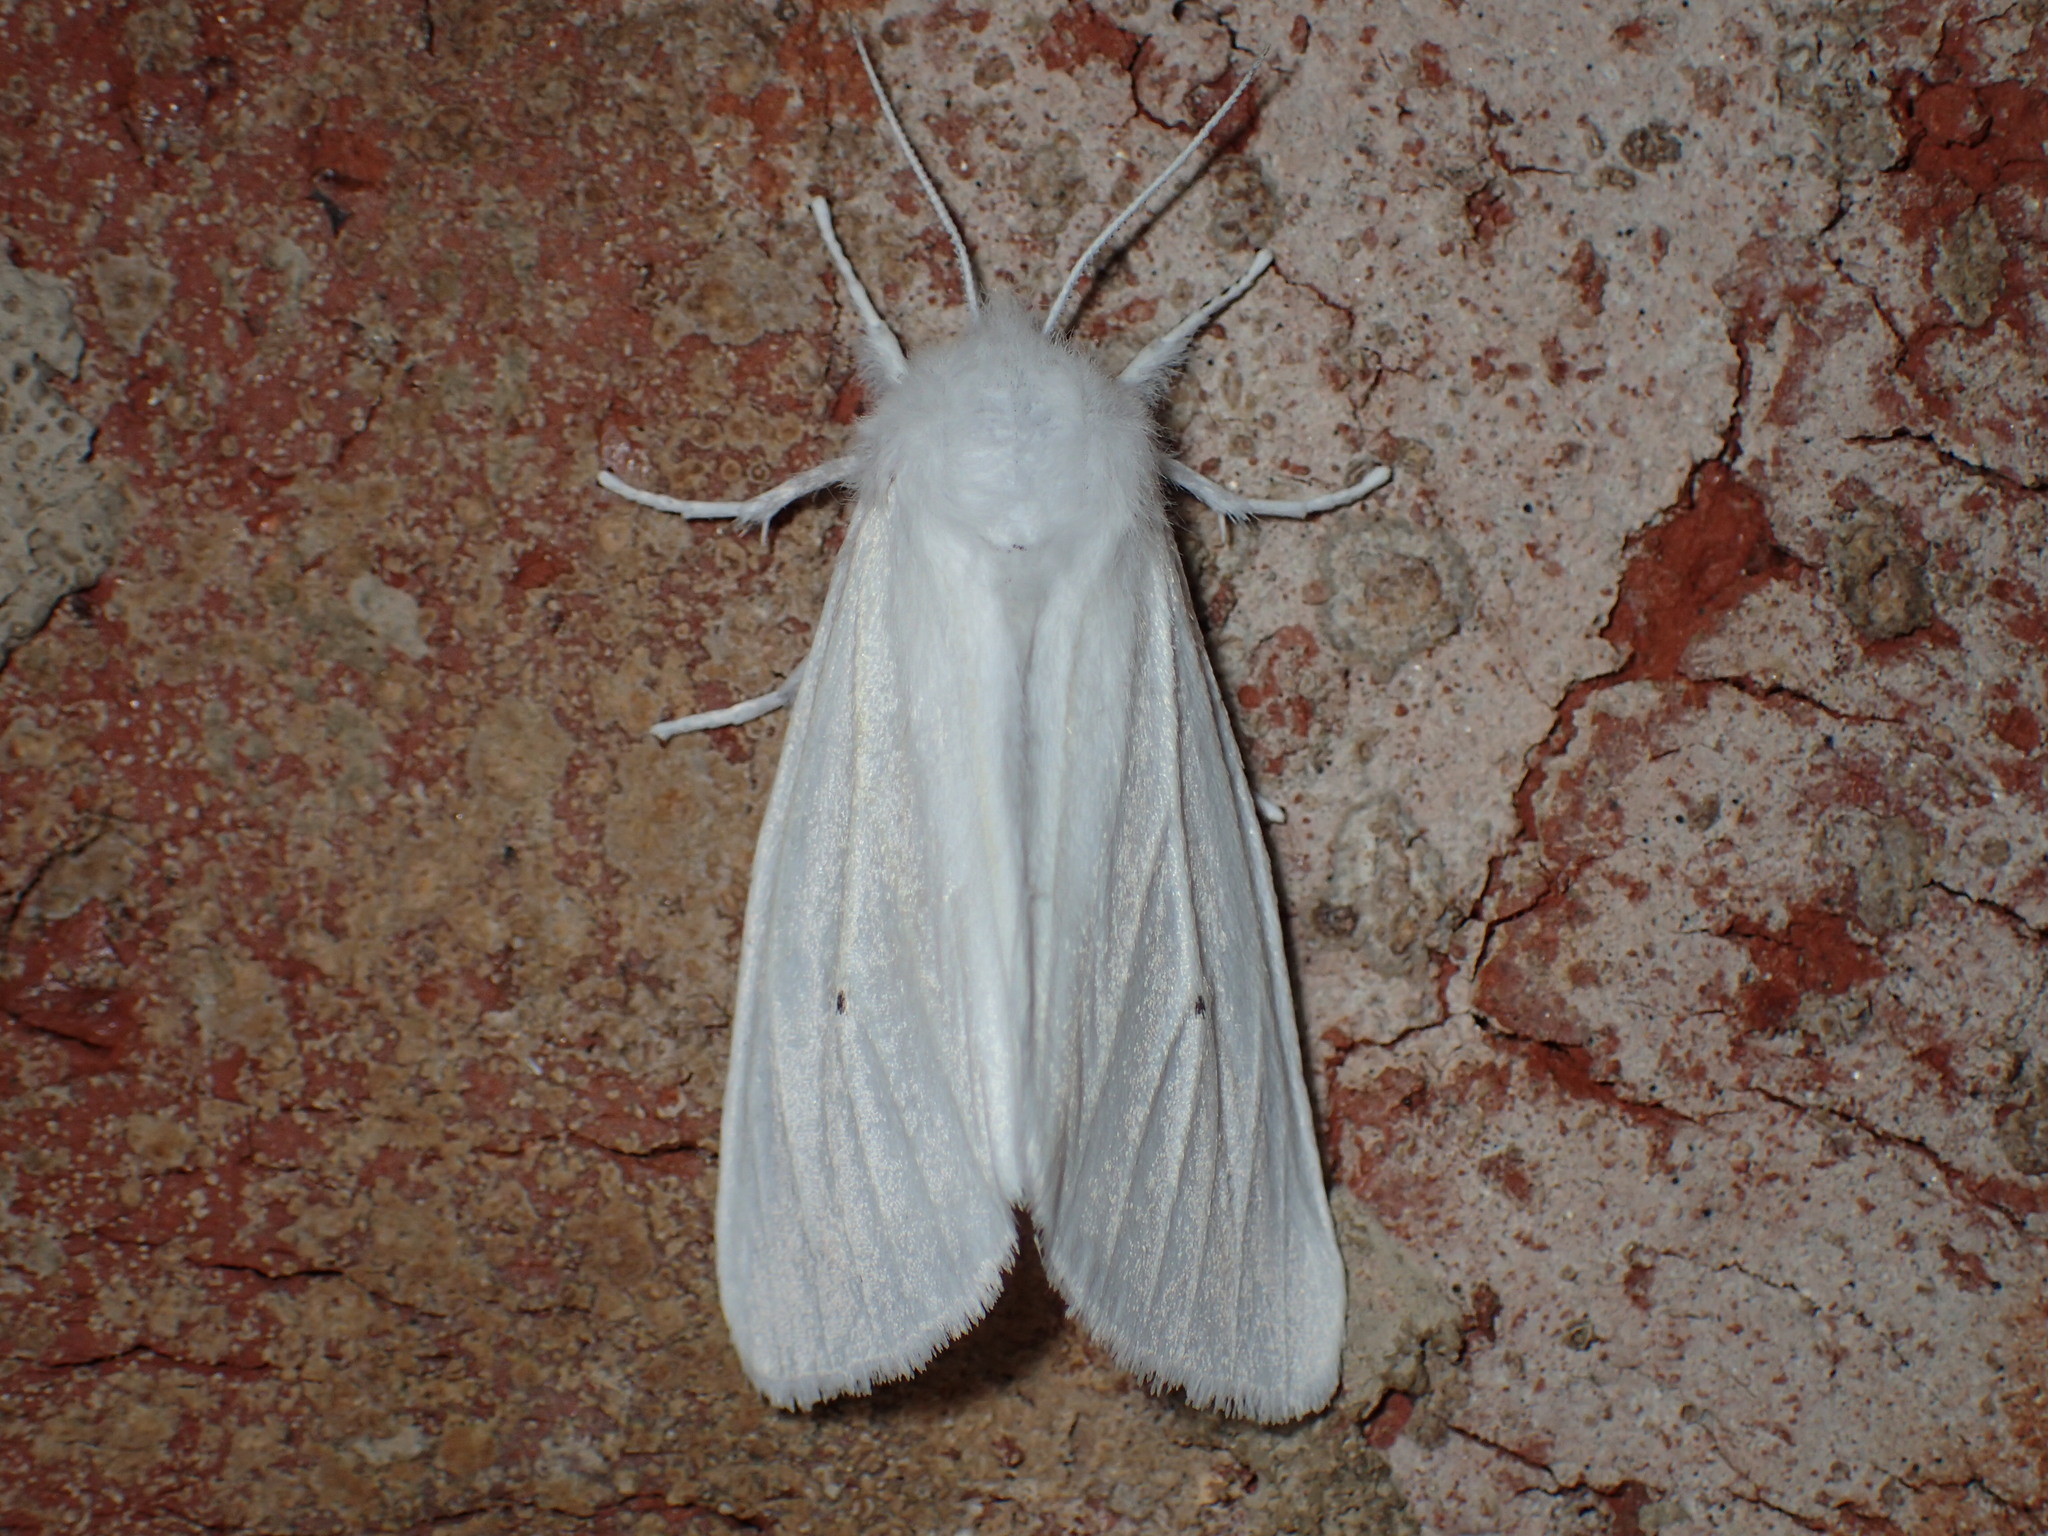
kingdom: Animalia
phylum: Arthropoda
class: Insecta
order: Lepidoptera
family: Erebidae
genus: Spilosoma
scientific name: Spilosoma congrua
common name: Agreeable tiger moth
